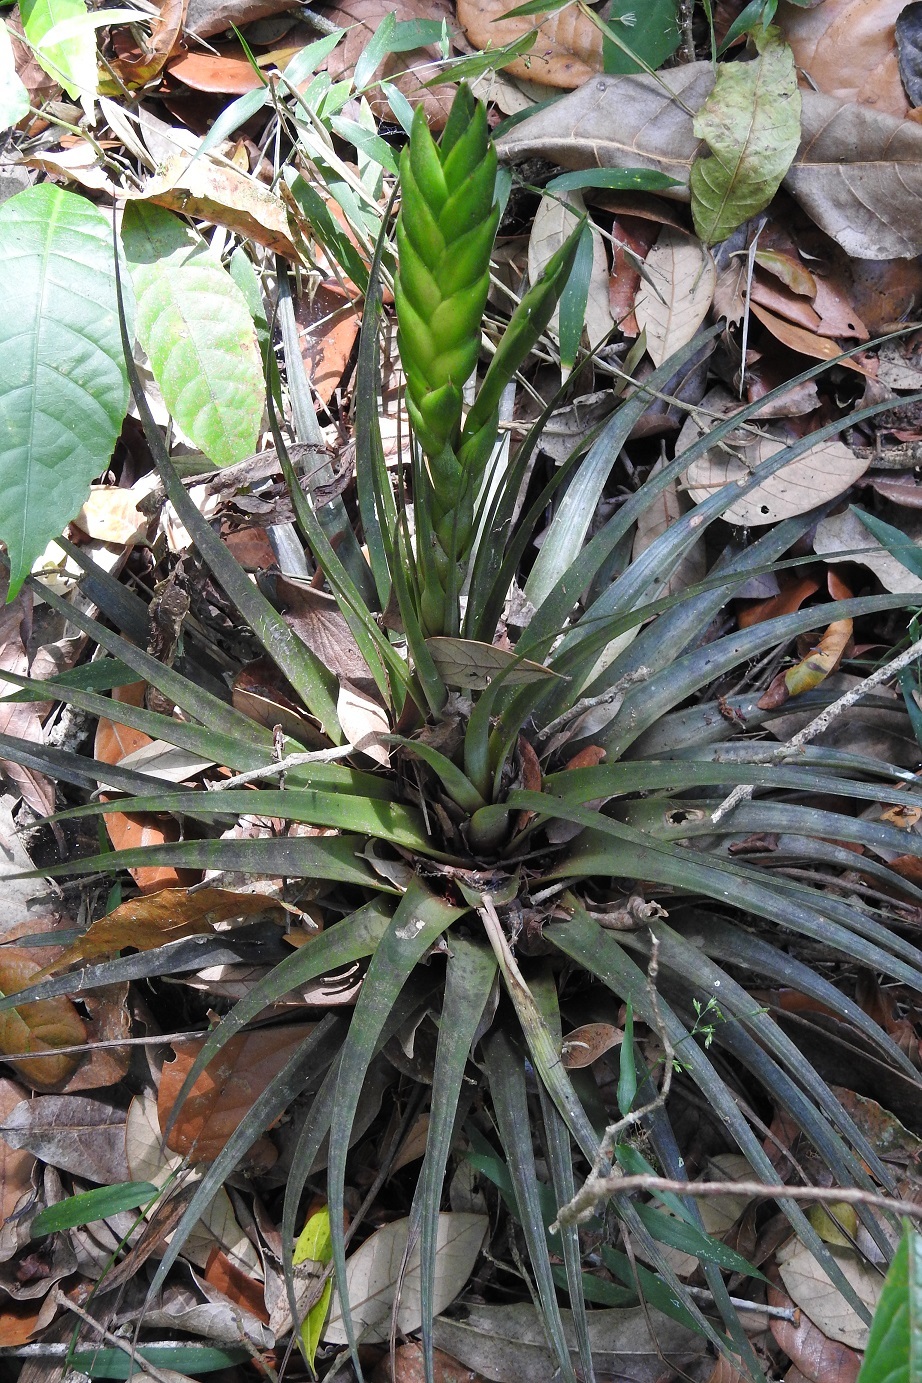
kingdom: Plantae
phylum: Tracheophyta
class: Liliopsida
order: Poales
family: Bromeliaceae
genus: Tillandsia
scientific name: Tillandsia flavobracteata
